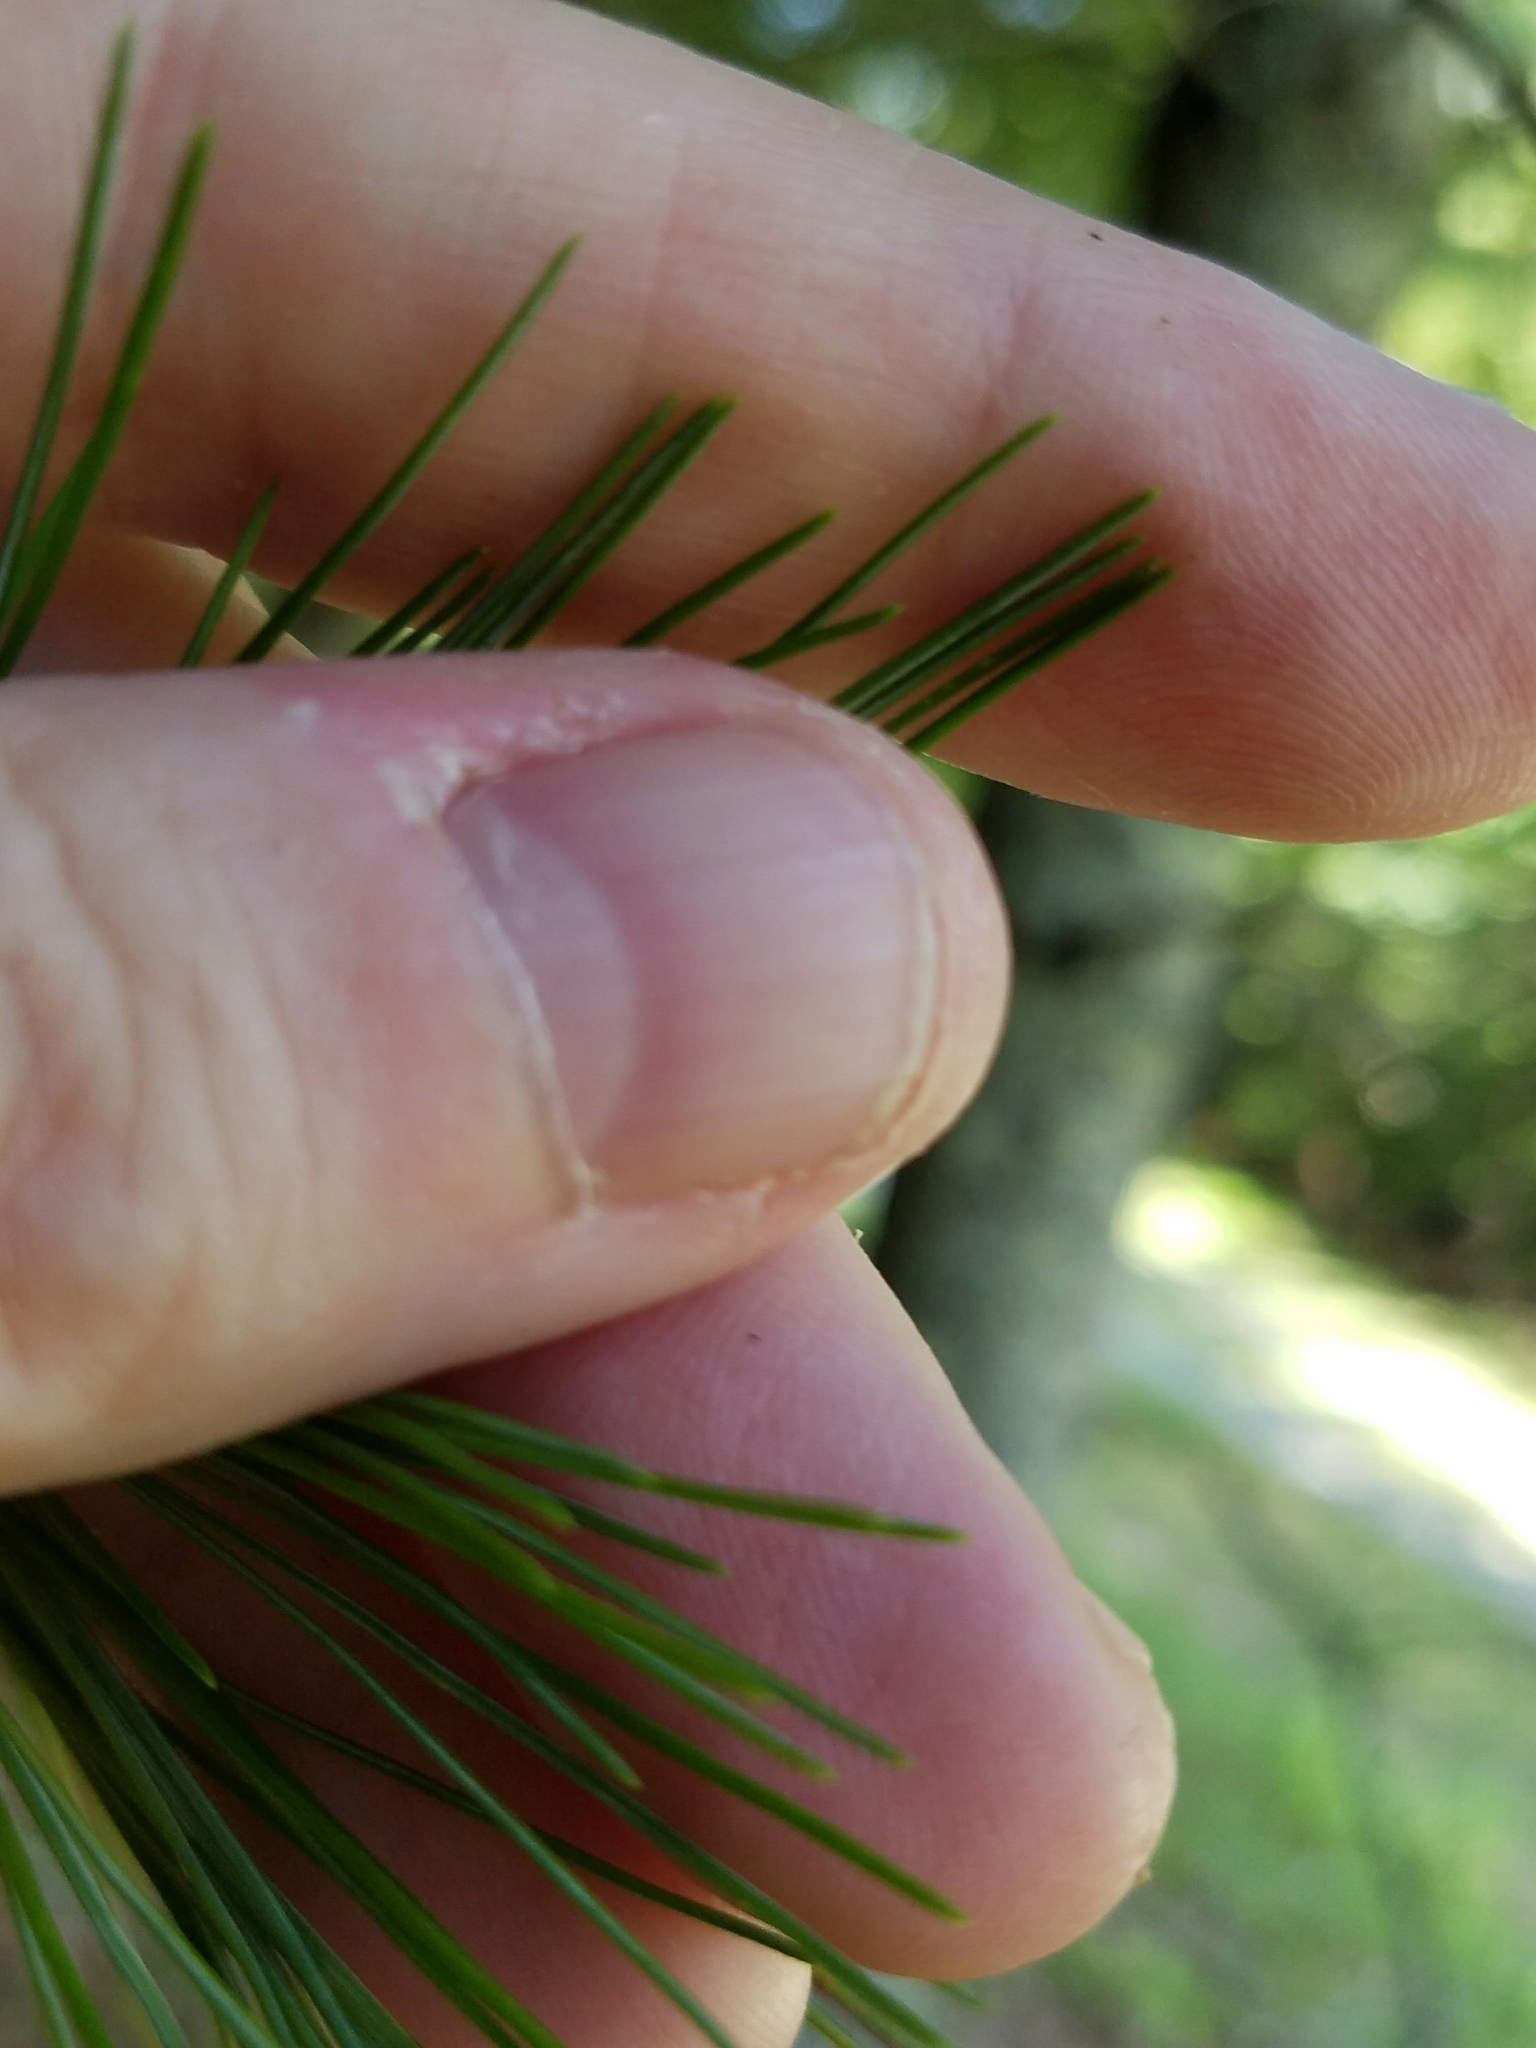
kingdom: Plantae
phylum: Tracheophyta
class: Pinopsida
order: Pinales
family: Pinaceae
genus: Pinus
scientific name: Pinus strobus
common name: Weymouth pine
